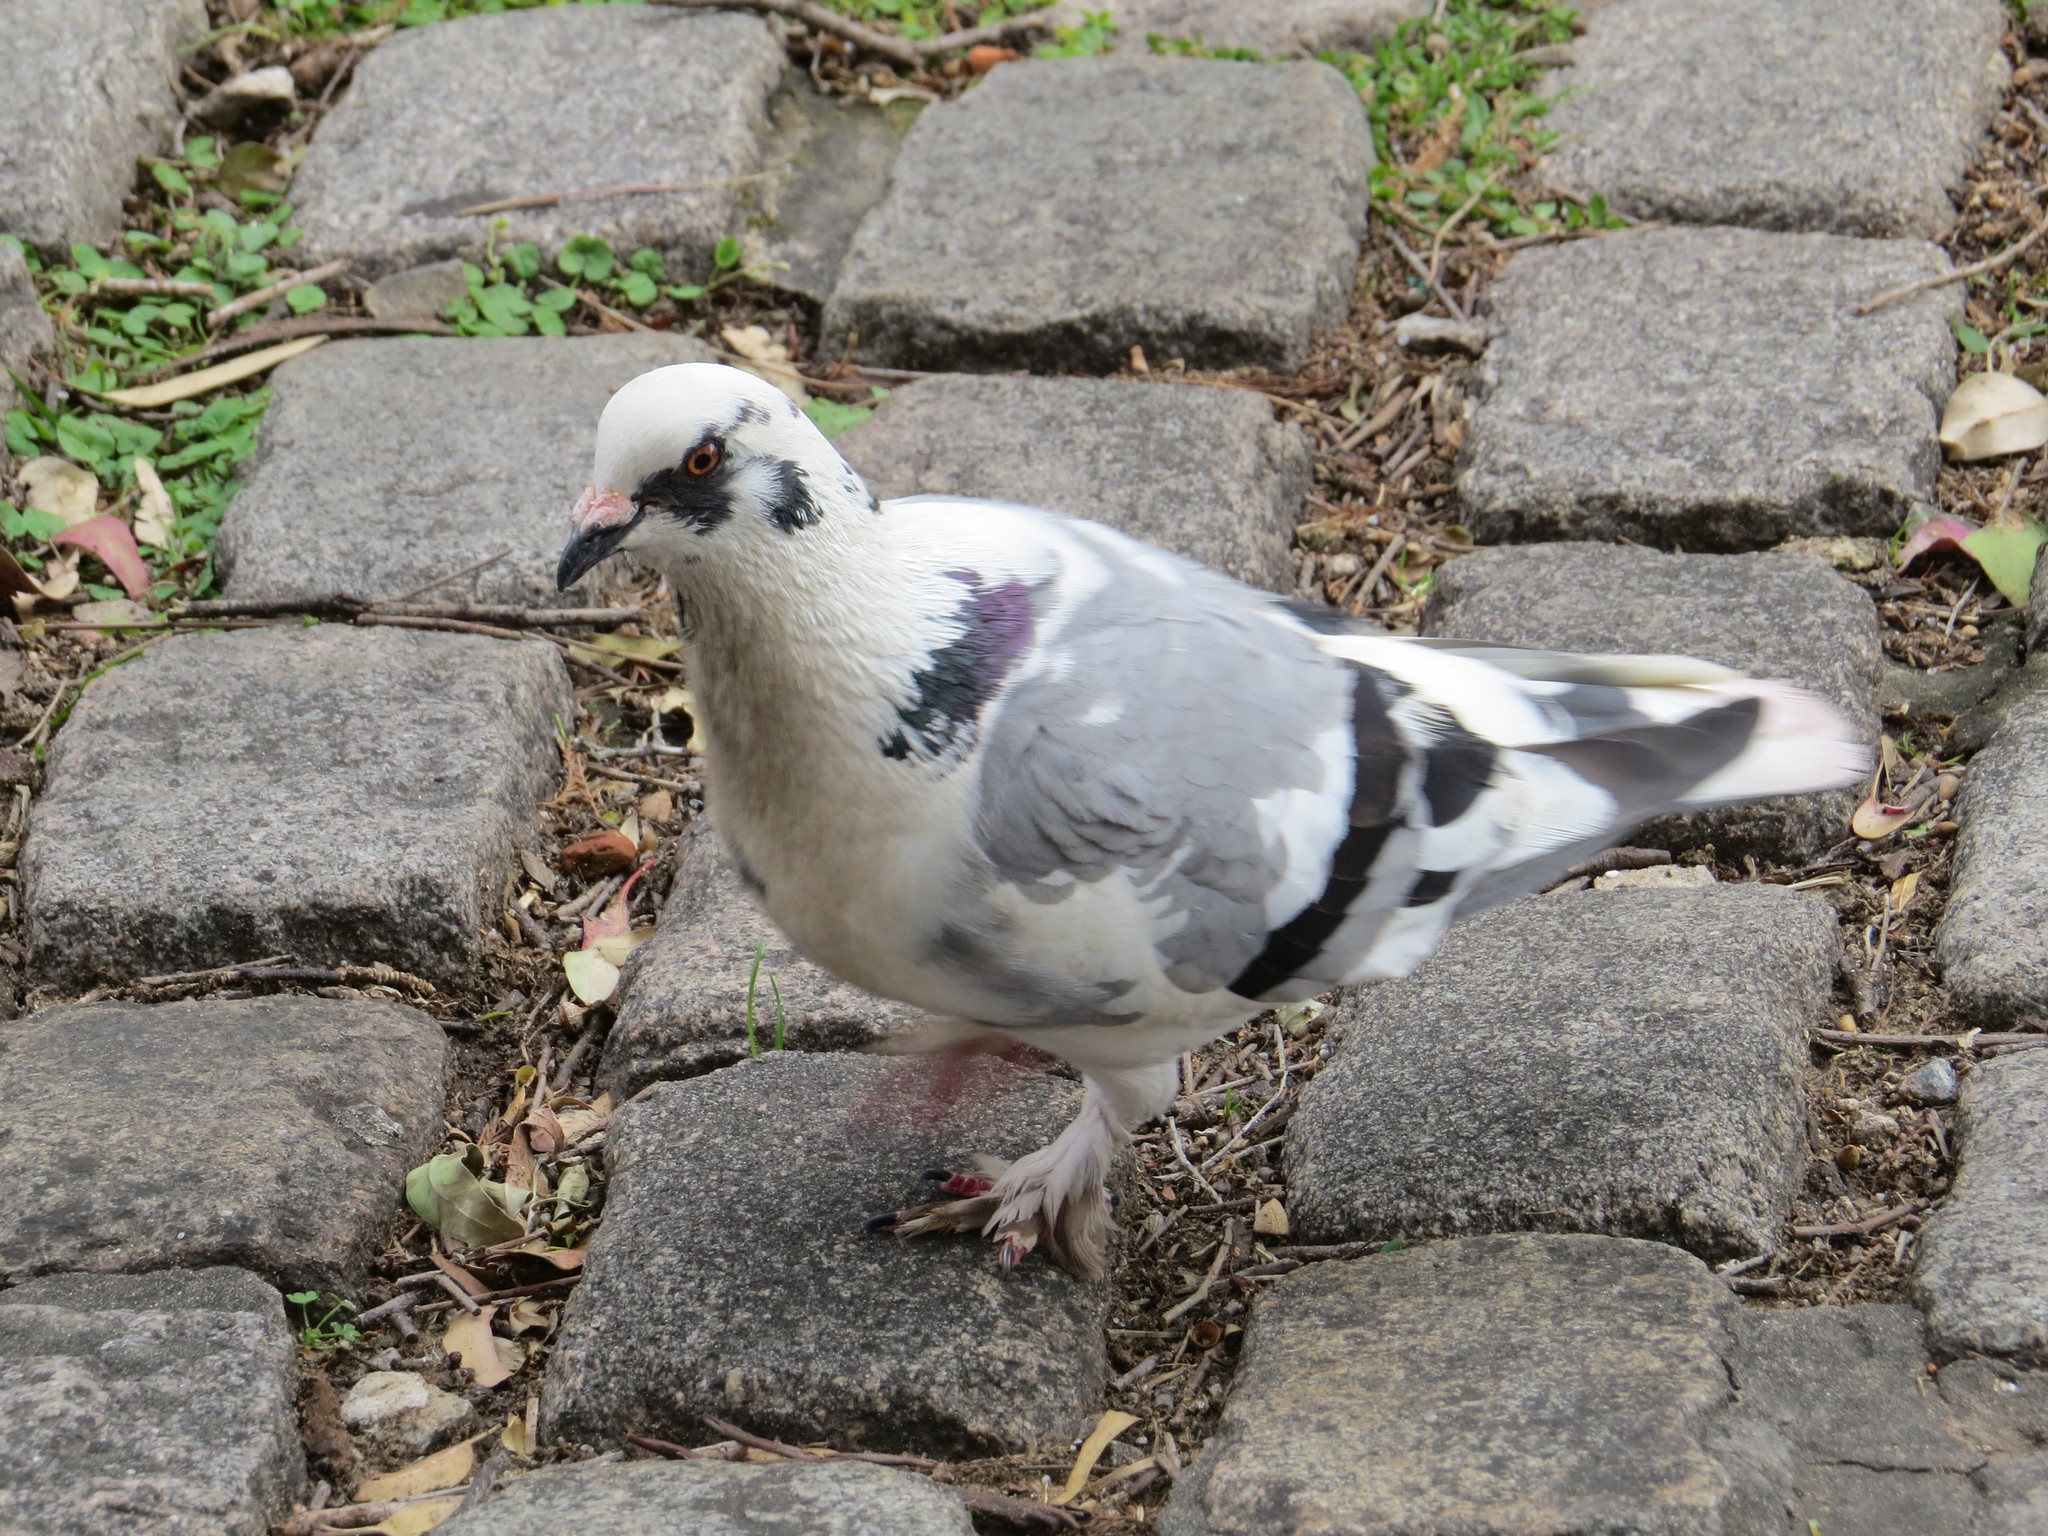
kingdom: Animalia
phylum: Chordata
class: Aves
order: Columbiformes
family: Columbidae
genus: Columba
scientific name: Columba livia
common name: Rock pigeon
